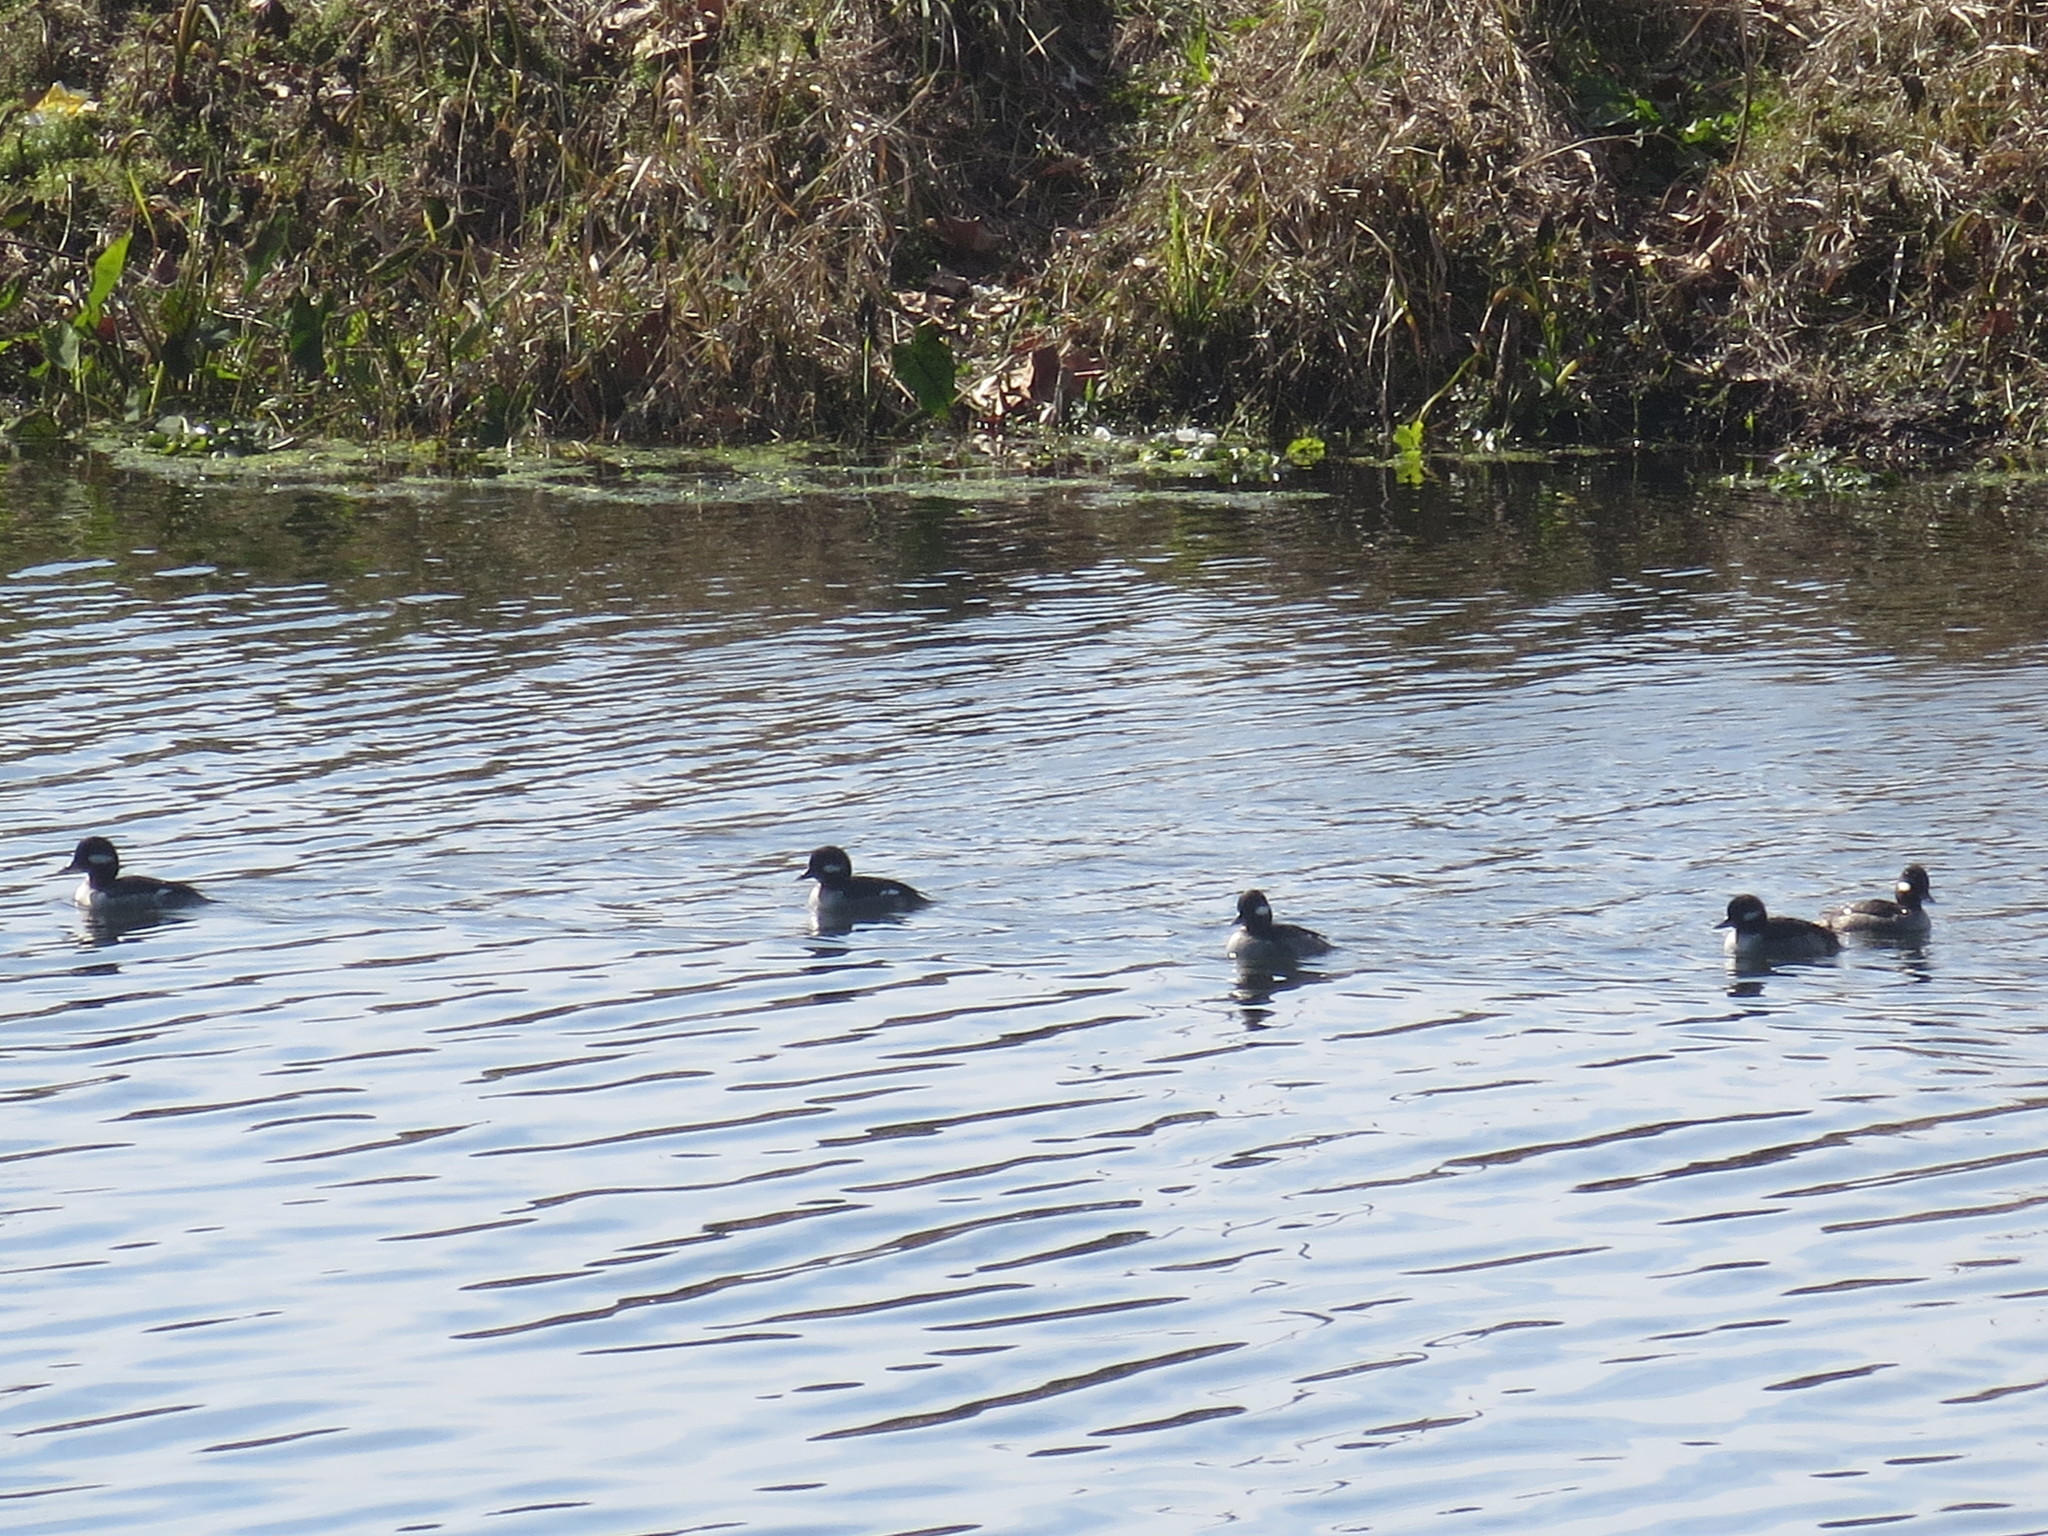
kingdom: Animalia
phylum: Chordata
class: Aves
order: Anseriformes
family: Anatidae
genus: Bucephala
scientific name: Bucephala albeola
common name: Bufflehead
